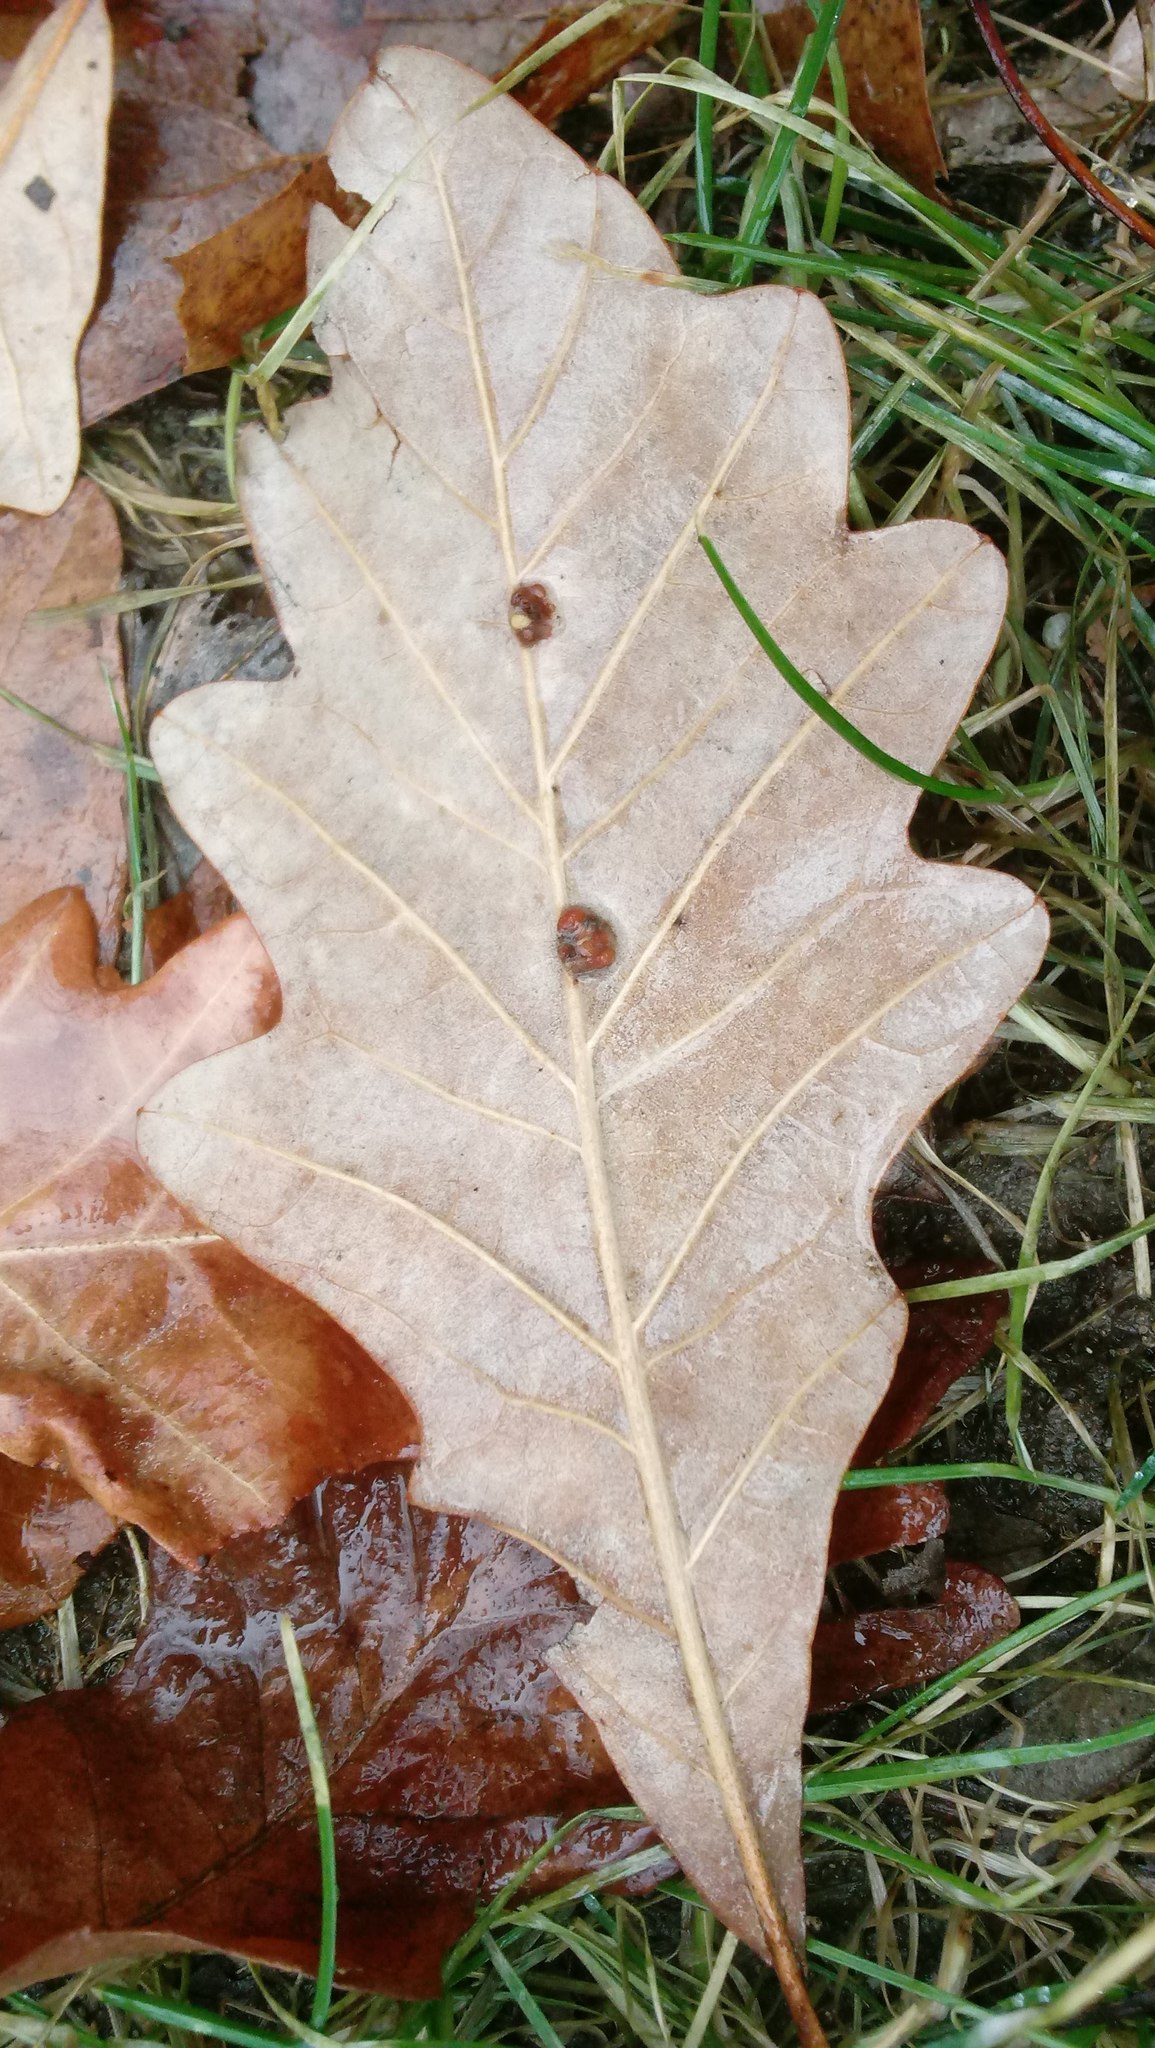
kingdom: Animalia
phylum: Arthropoda
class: Insecta
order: Hymenoptera
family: Cynipidae
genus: Andricus
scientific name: Andricus Druon ignotum
